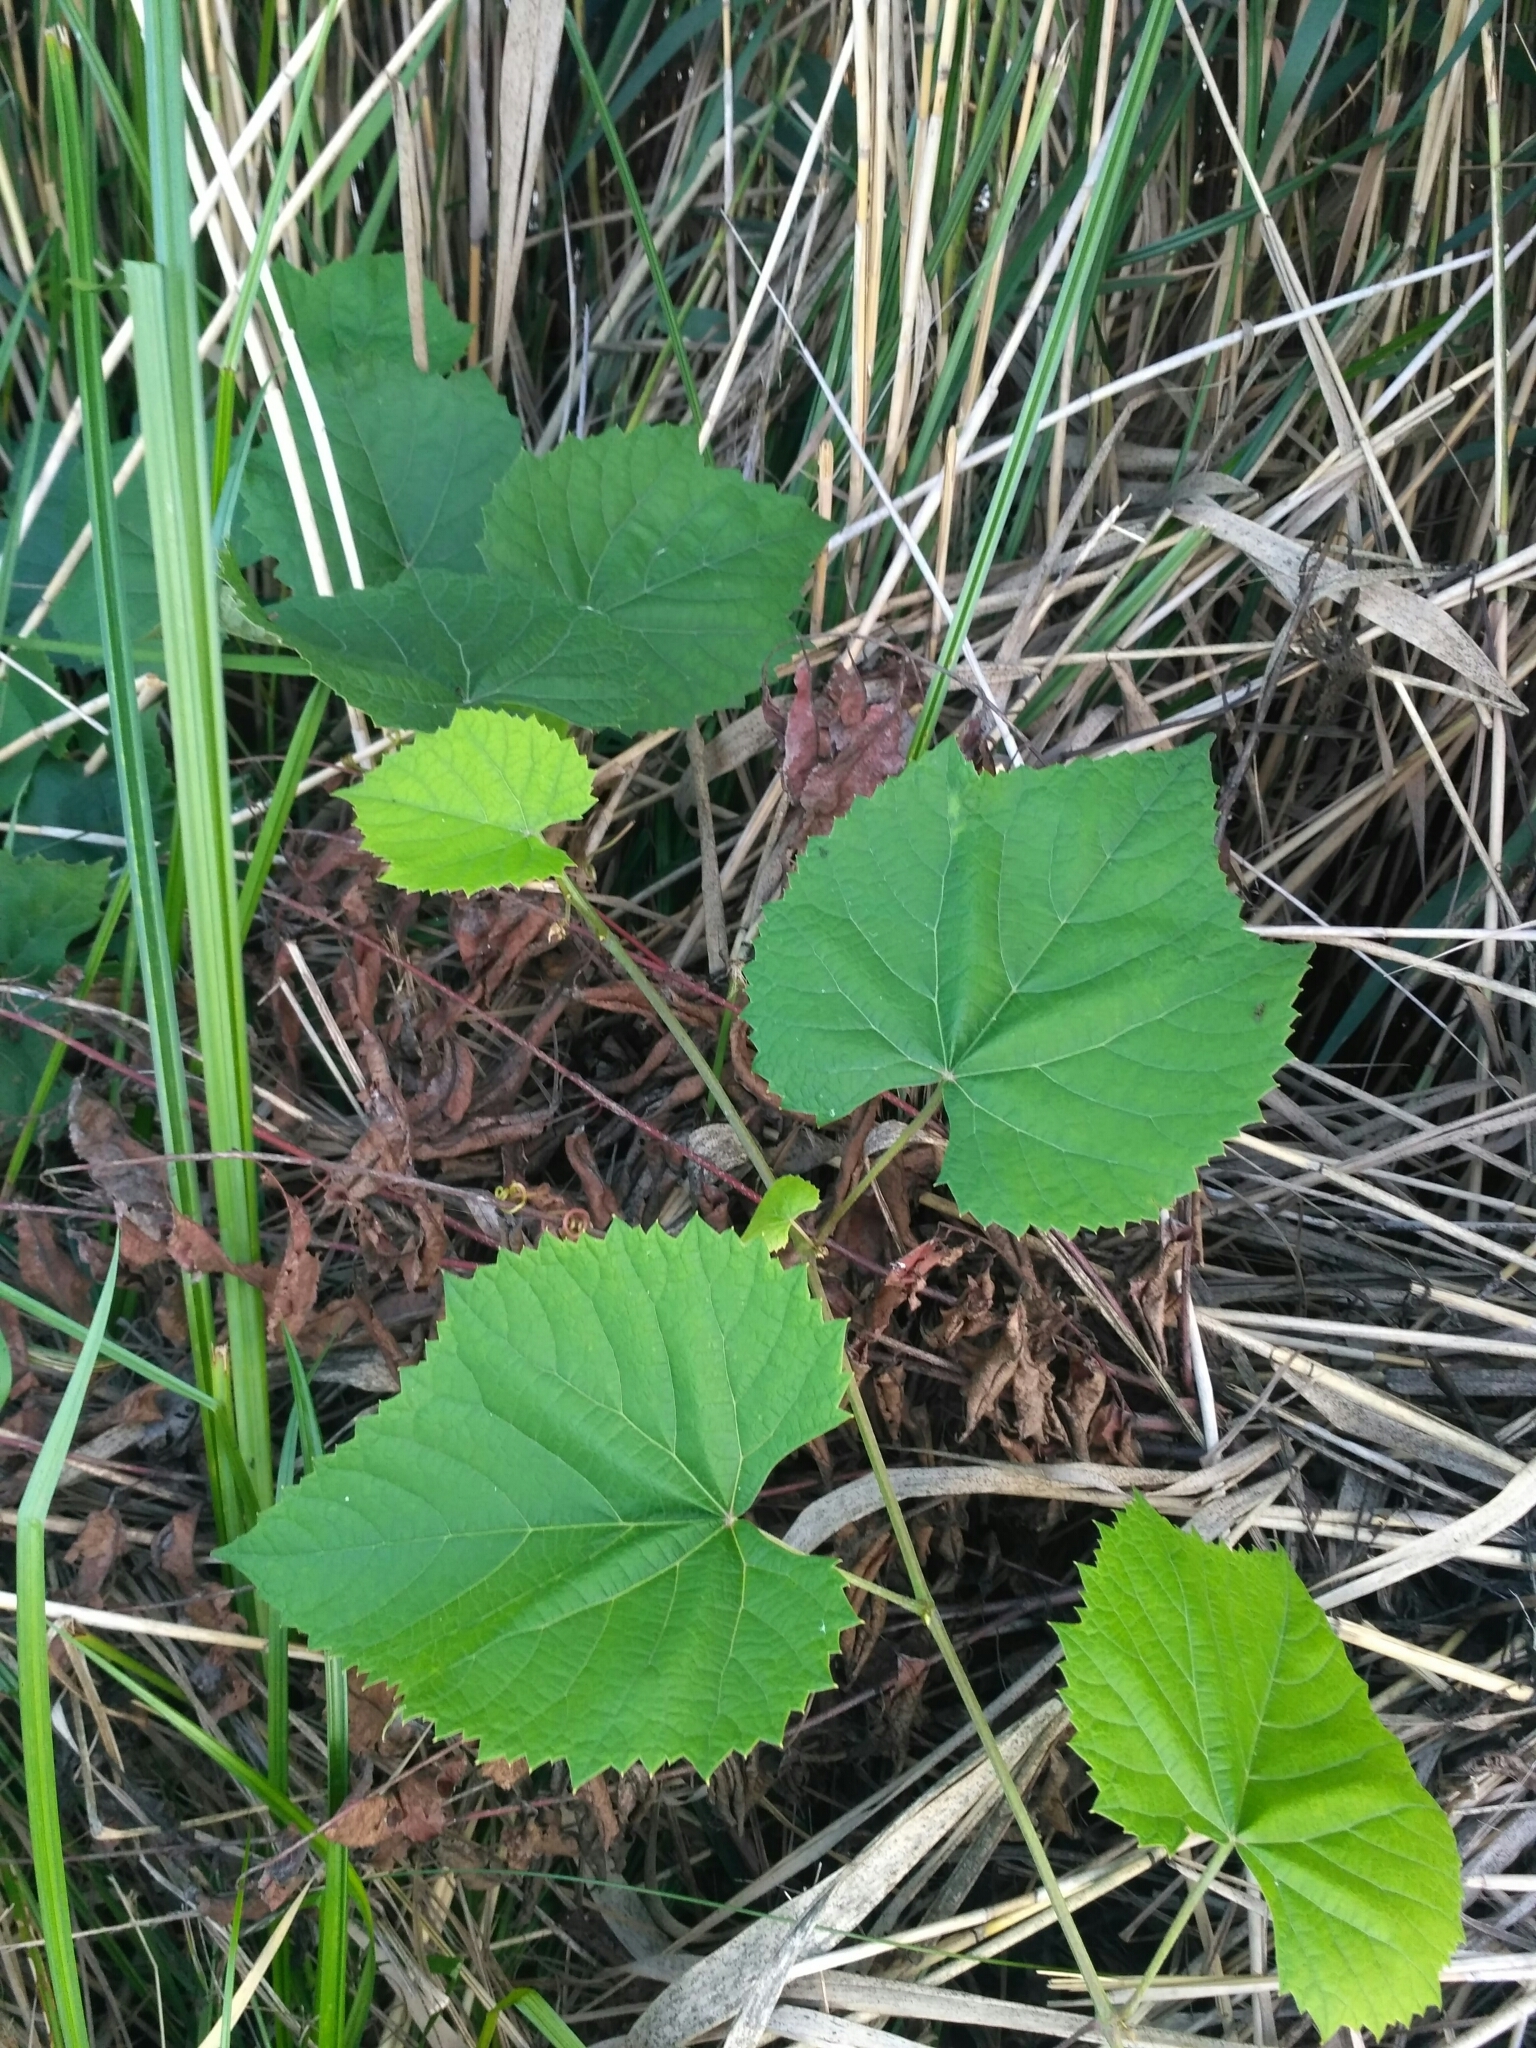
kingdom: Plantae
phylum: Tracheophyta
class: Magnoliopsida
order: Vitales
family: Vitaceae
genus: Vitis
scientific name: Vitis vinifera
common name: Grape-vine
